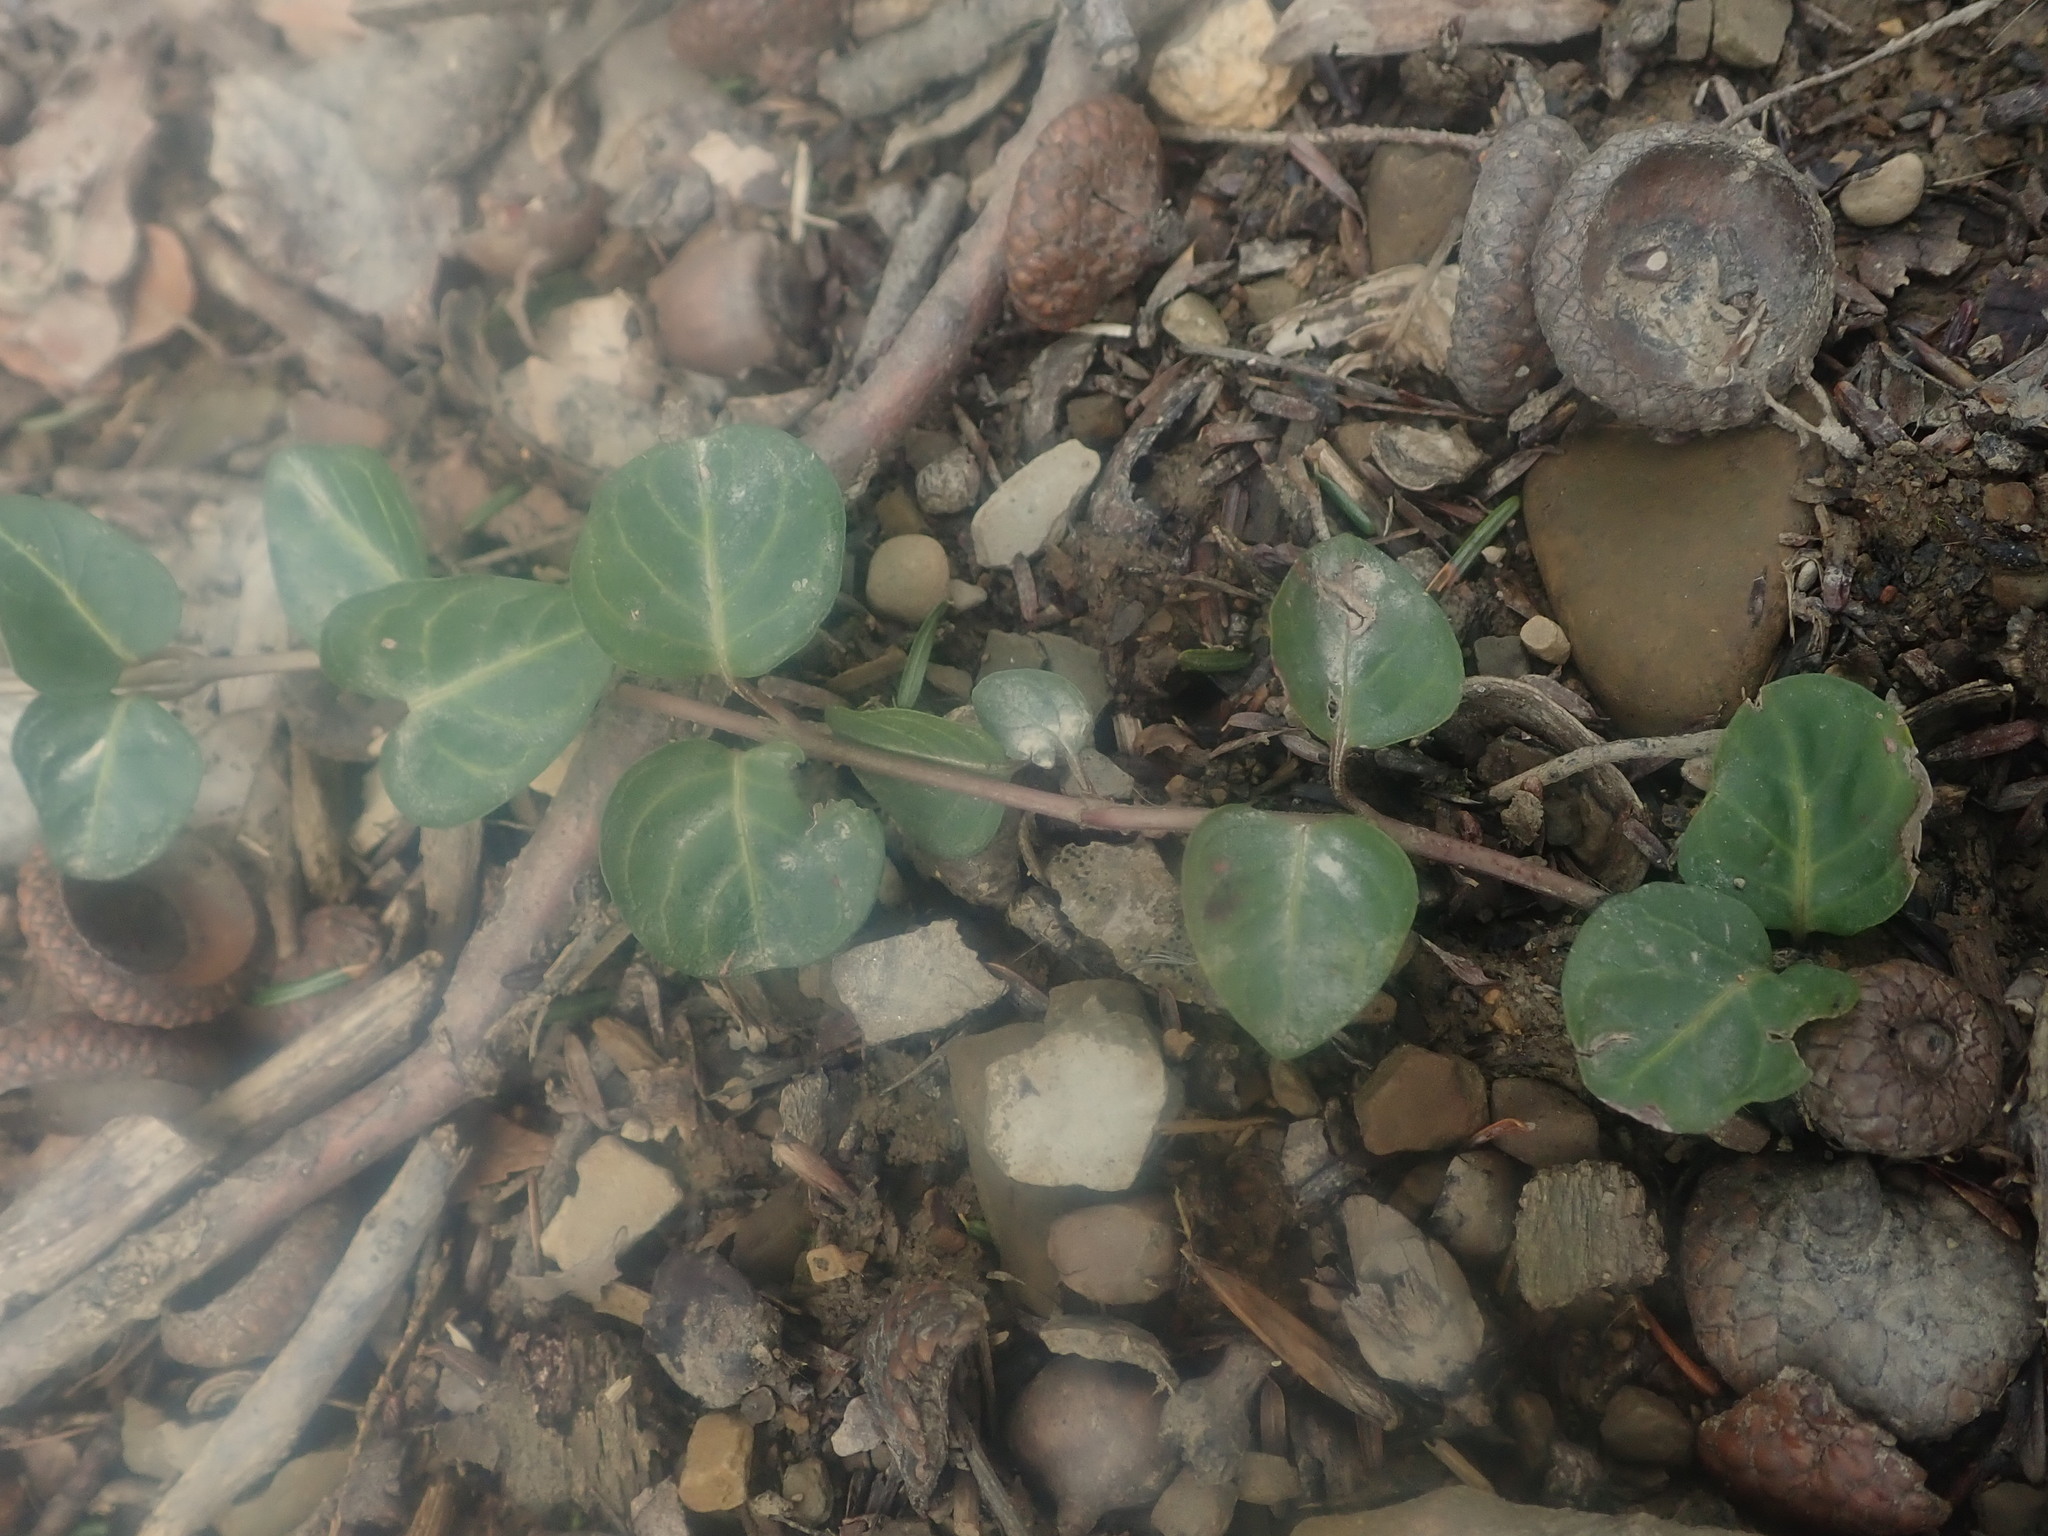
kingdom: Plantae
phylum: Tracheophyta
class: Magnoliopsida
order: Gentianales
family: Rubiaceae
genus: Mitchella
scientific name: Mitchella repens
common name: Partridge-berry
